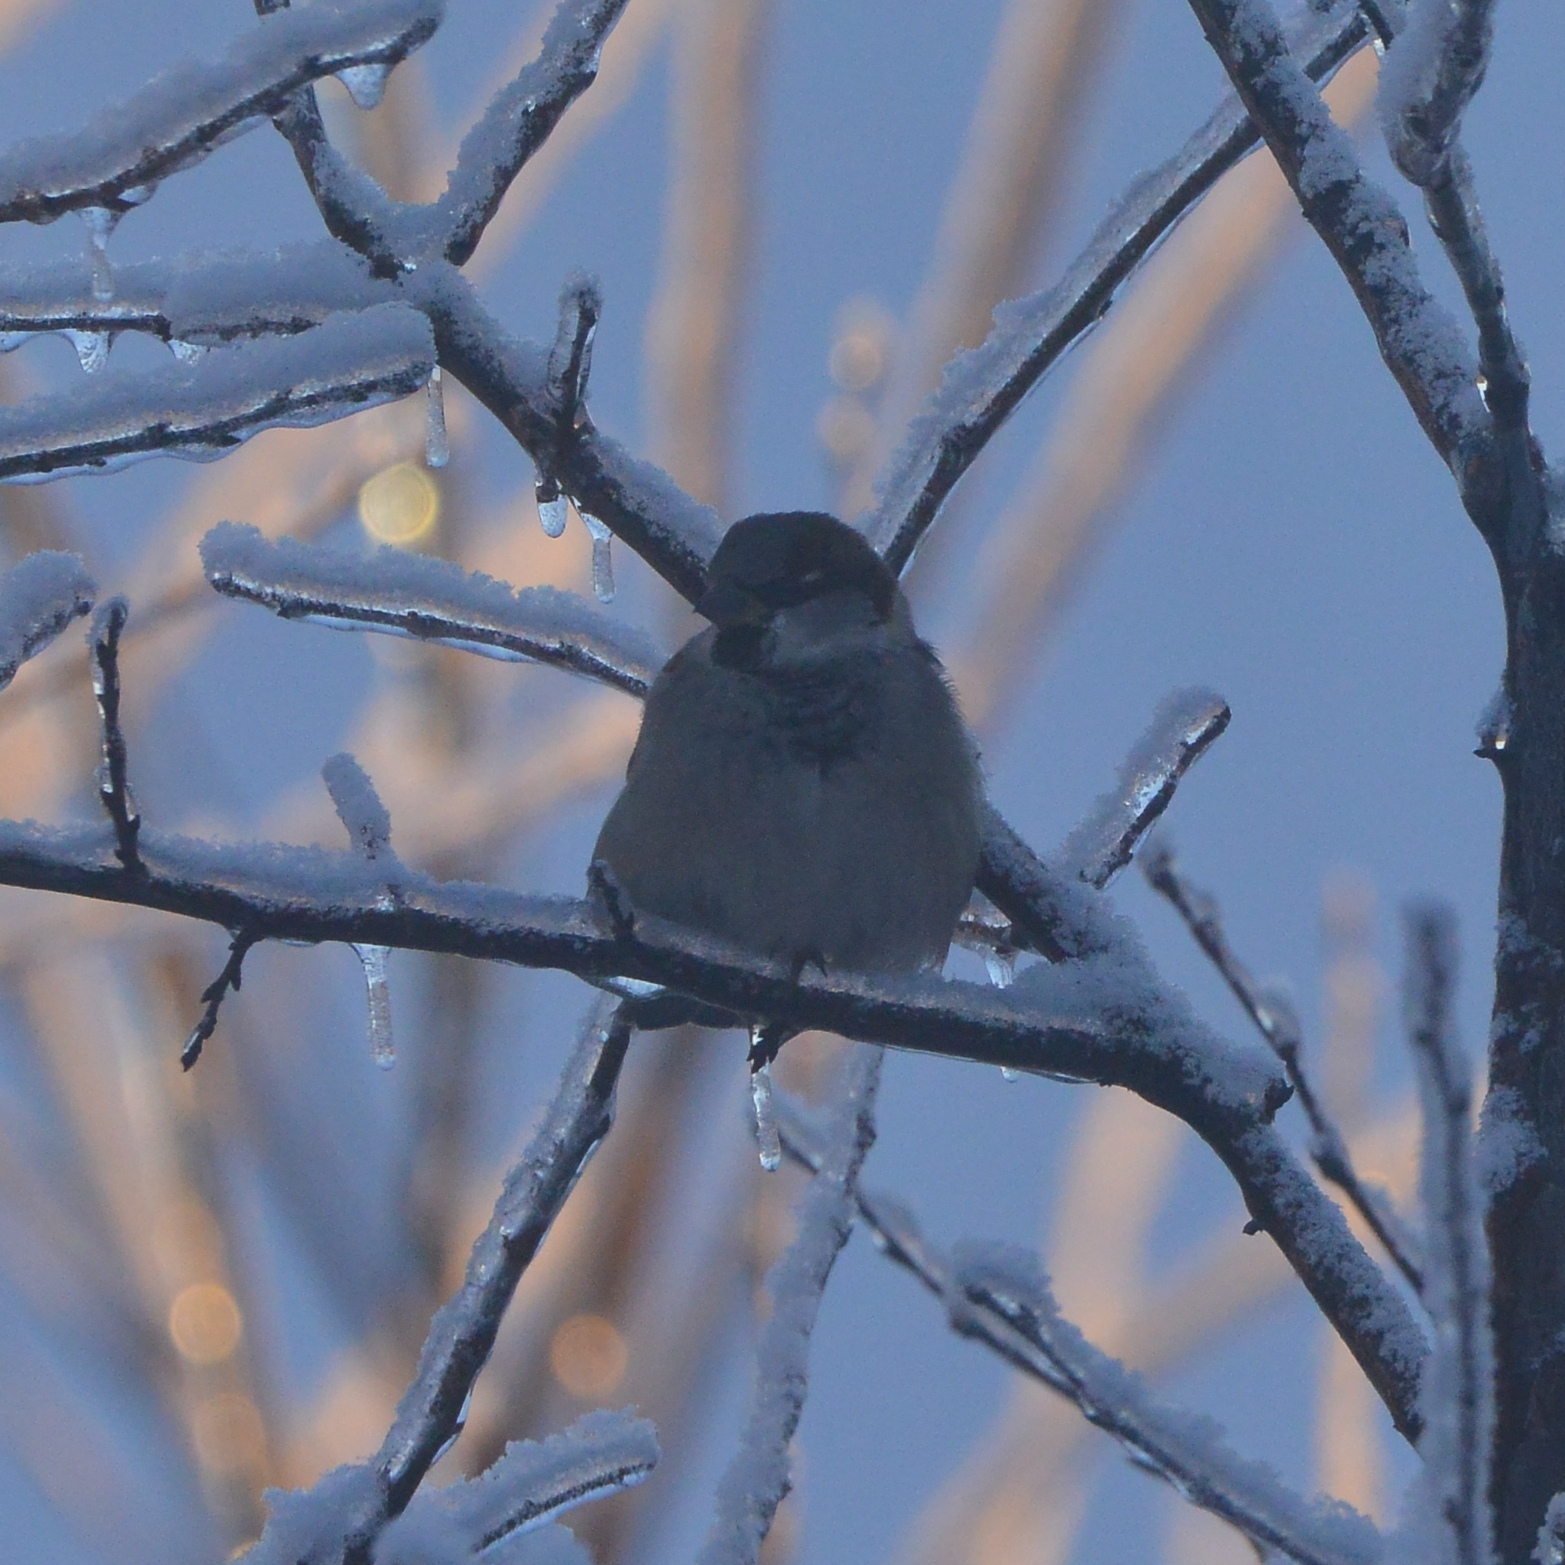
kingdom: Animalia
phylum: Chordata
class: Aves
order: Passeriformes
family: Passeridae
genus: Passer
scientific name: Passer domesticus
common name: House sparrow
